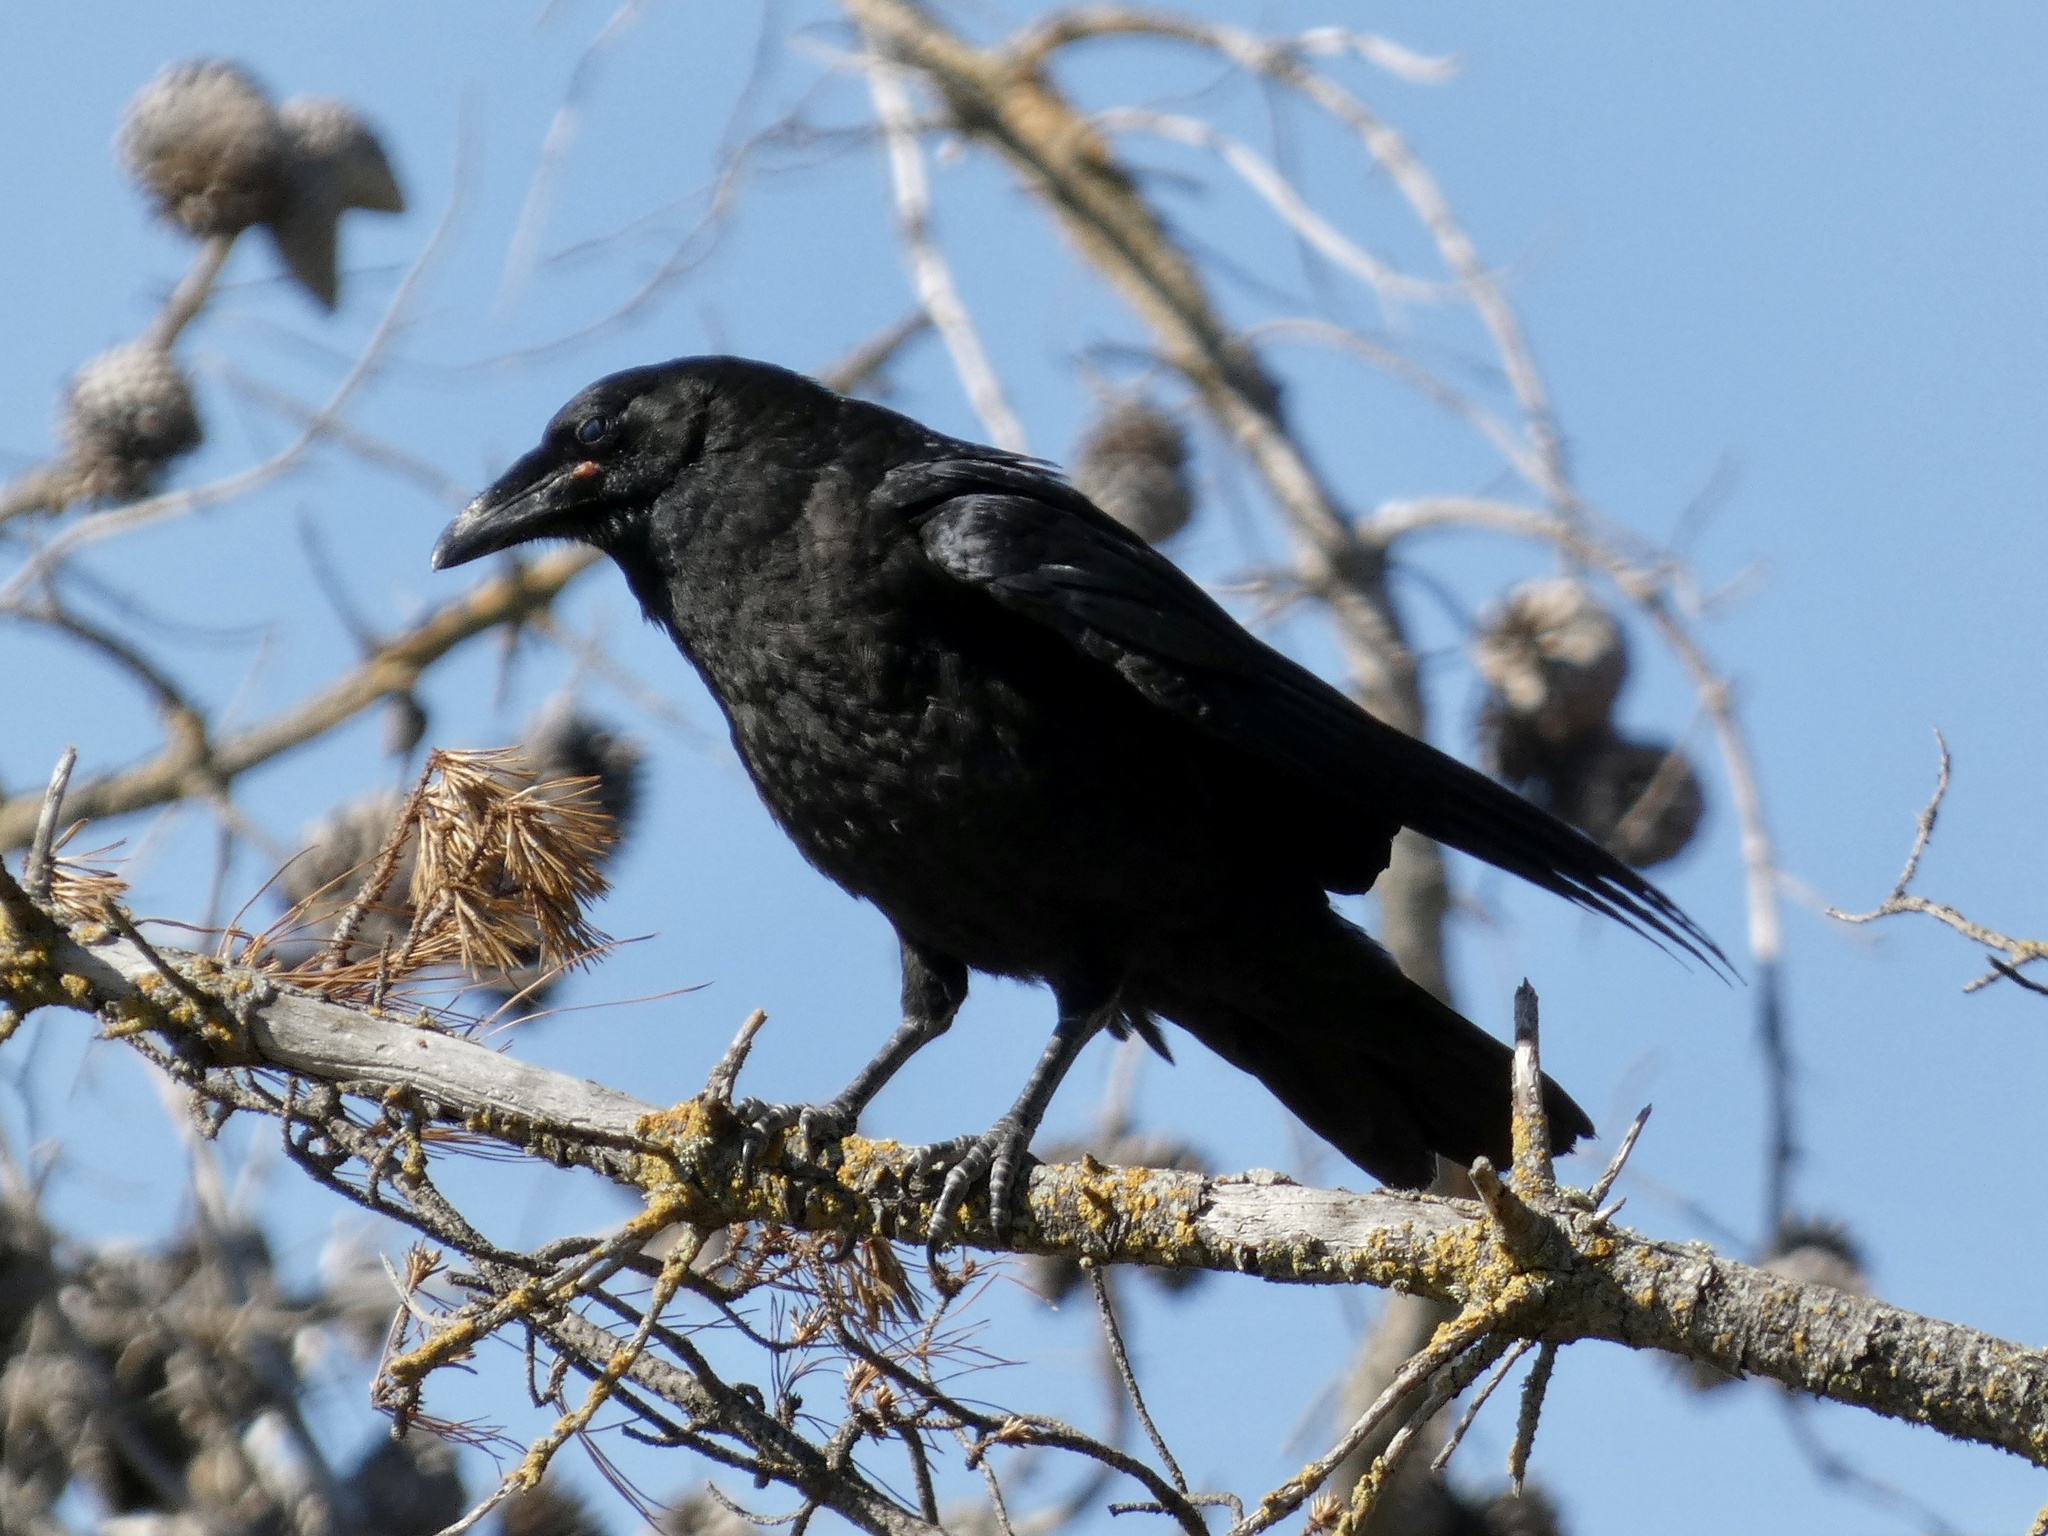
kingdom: Animalia
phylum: Chordata
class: Aves
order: Passeriformes
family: Corvidae
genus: Corvus
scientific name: Corvus brachyrhynchos
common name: American crow
